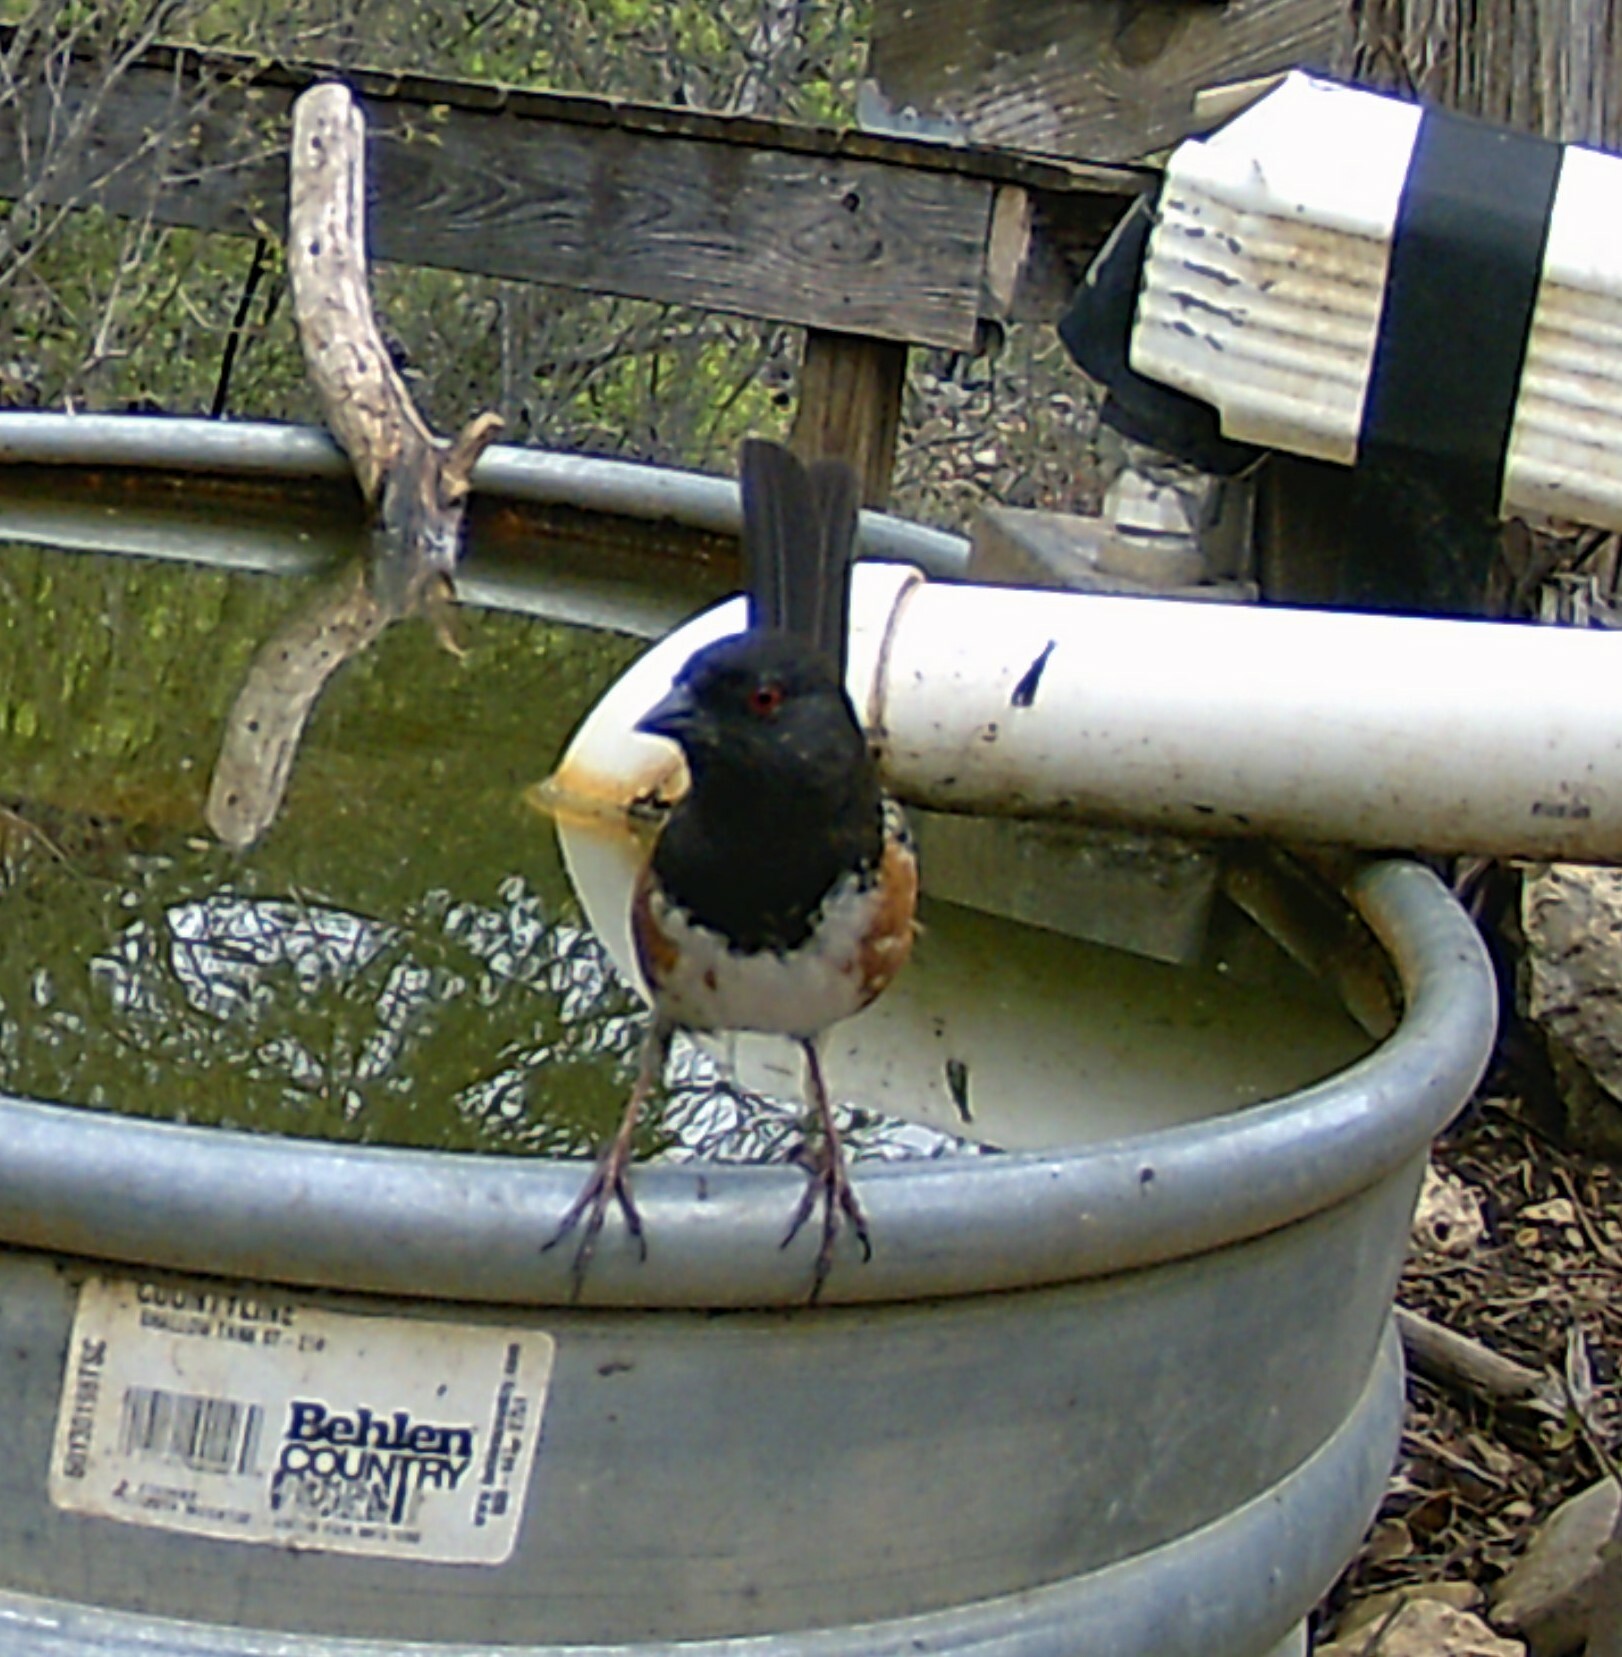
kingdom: Animalia
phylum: Chordata
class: Aves
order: Passeriformes
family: Passerellidae
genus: Pipilo
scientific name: Pipilo maculatus
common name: Spotted towhee
